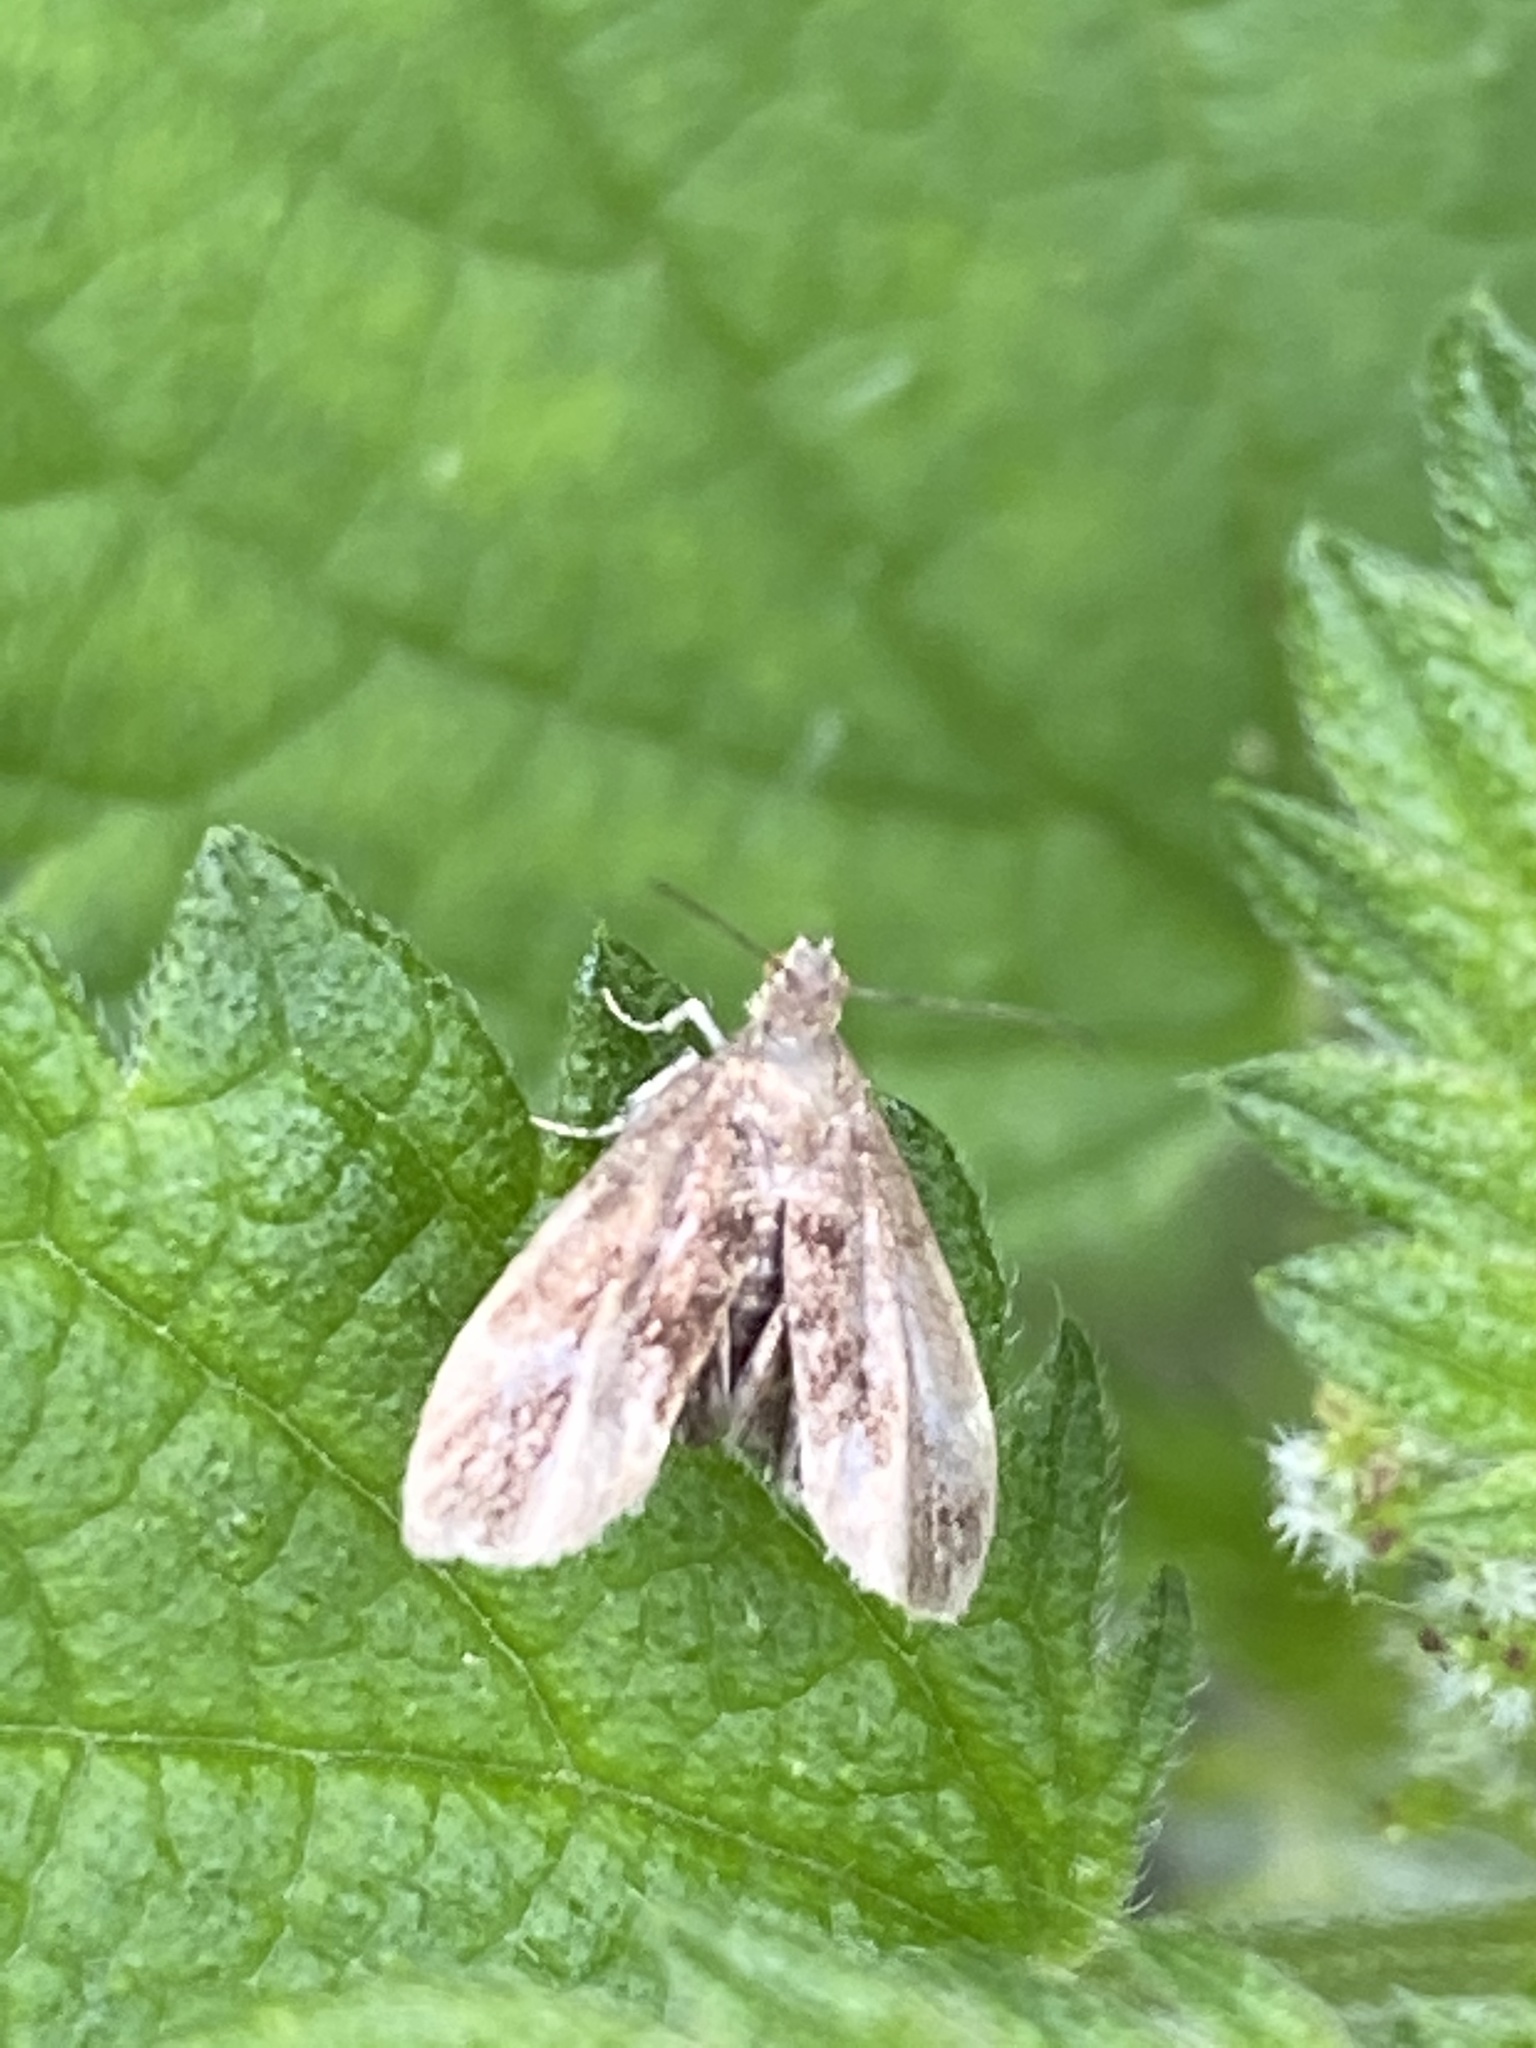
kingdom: Animalia
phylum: Arthropoda
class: Insecta
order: Lepidoptera
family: Choreutidae
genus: Anthophila
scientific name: Anthophila fabriciana
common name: Nettle-tap
